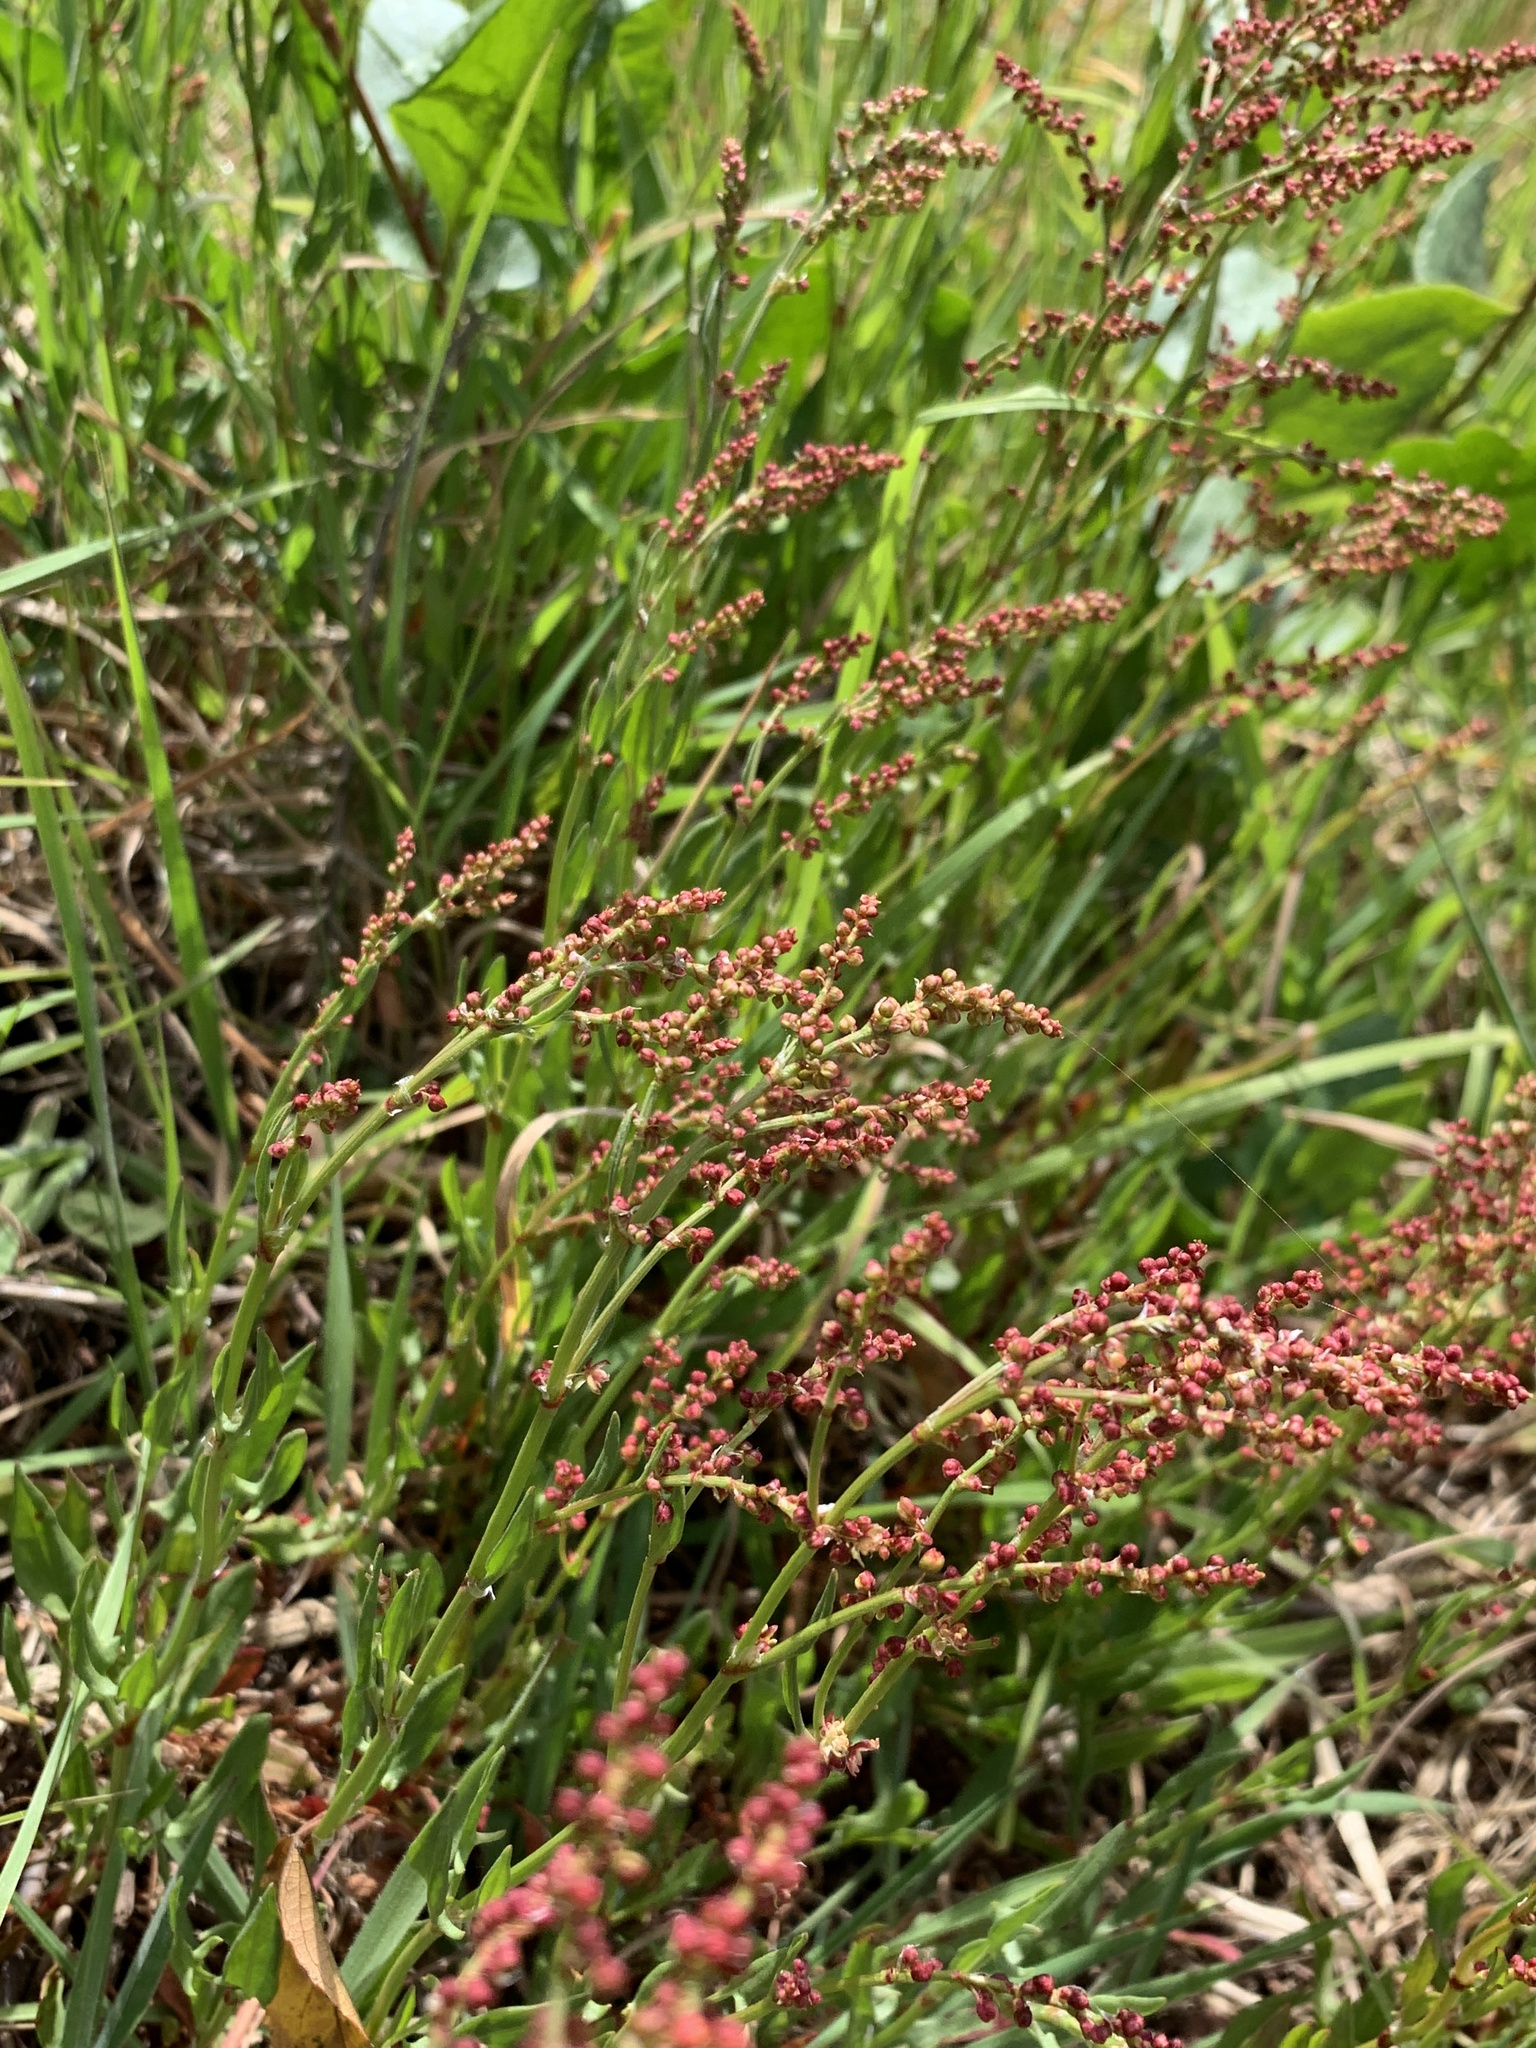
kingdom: Plantae
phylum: Tracheophyta
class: Magnoliopsida
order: Caryophyllales
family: Polygonaceae
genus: Rumex
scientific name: Rumex acetosella
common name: Common sheep sorrel
